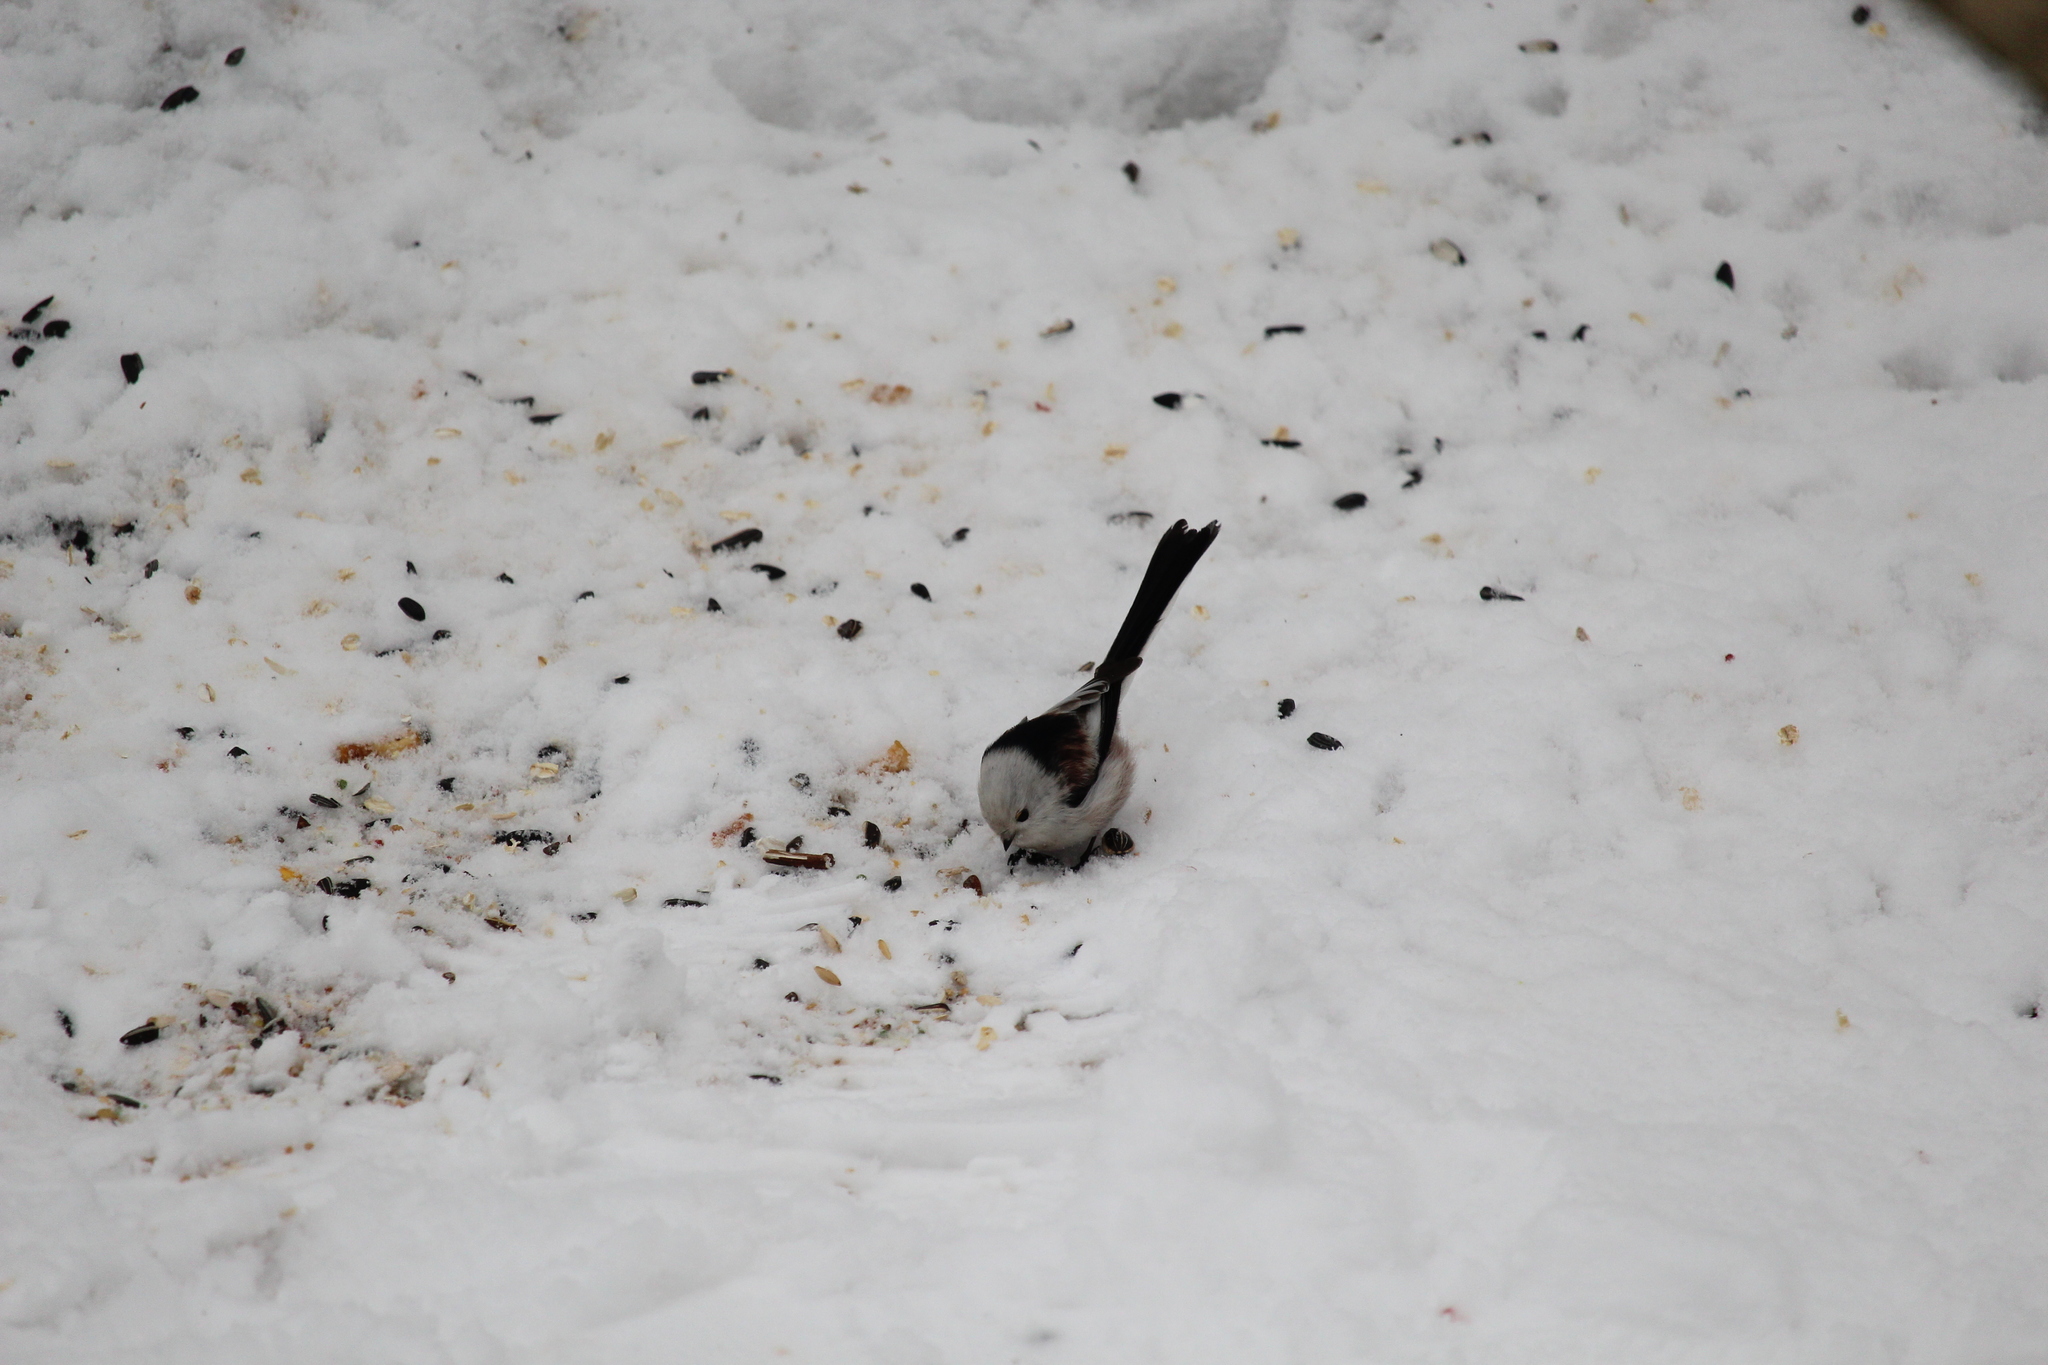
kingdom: Animalia
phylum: Chordata
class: Aves
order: Passeriformes
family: Aegithalidae
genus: Aegithalos
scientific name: Aegithalos caudatus
